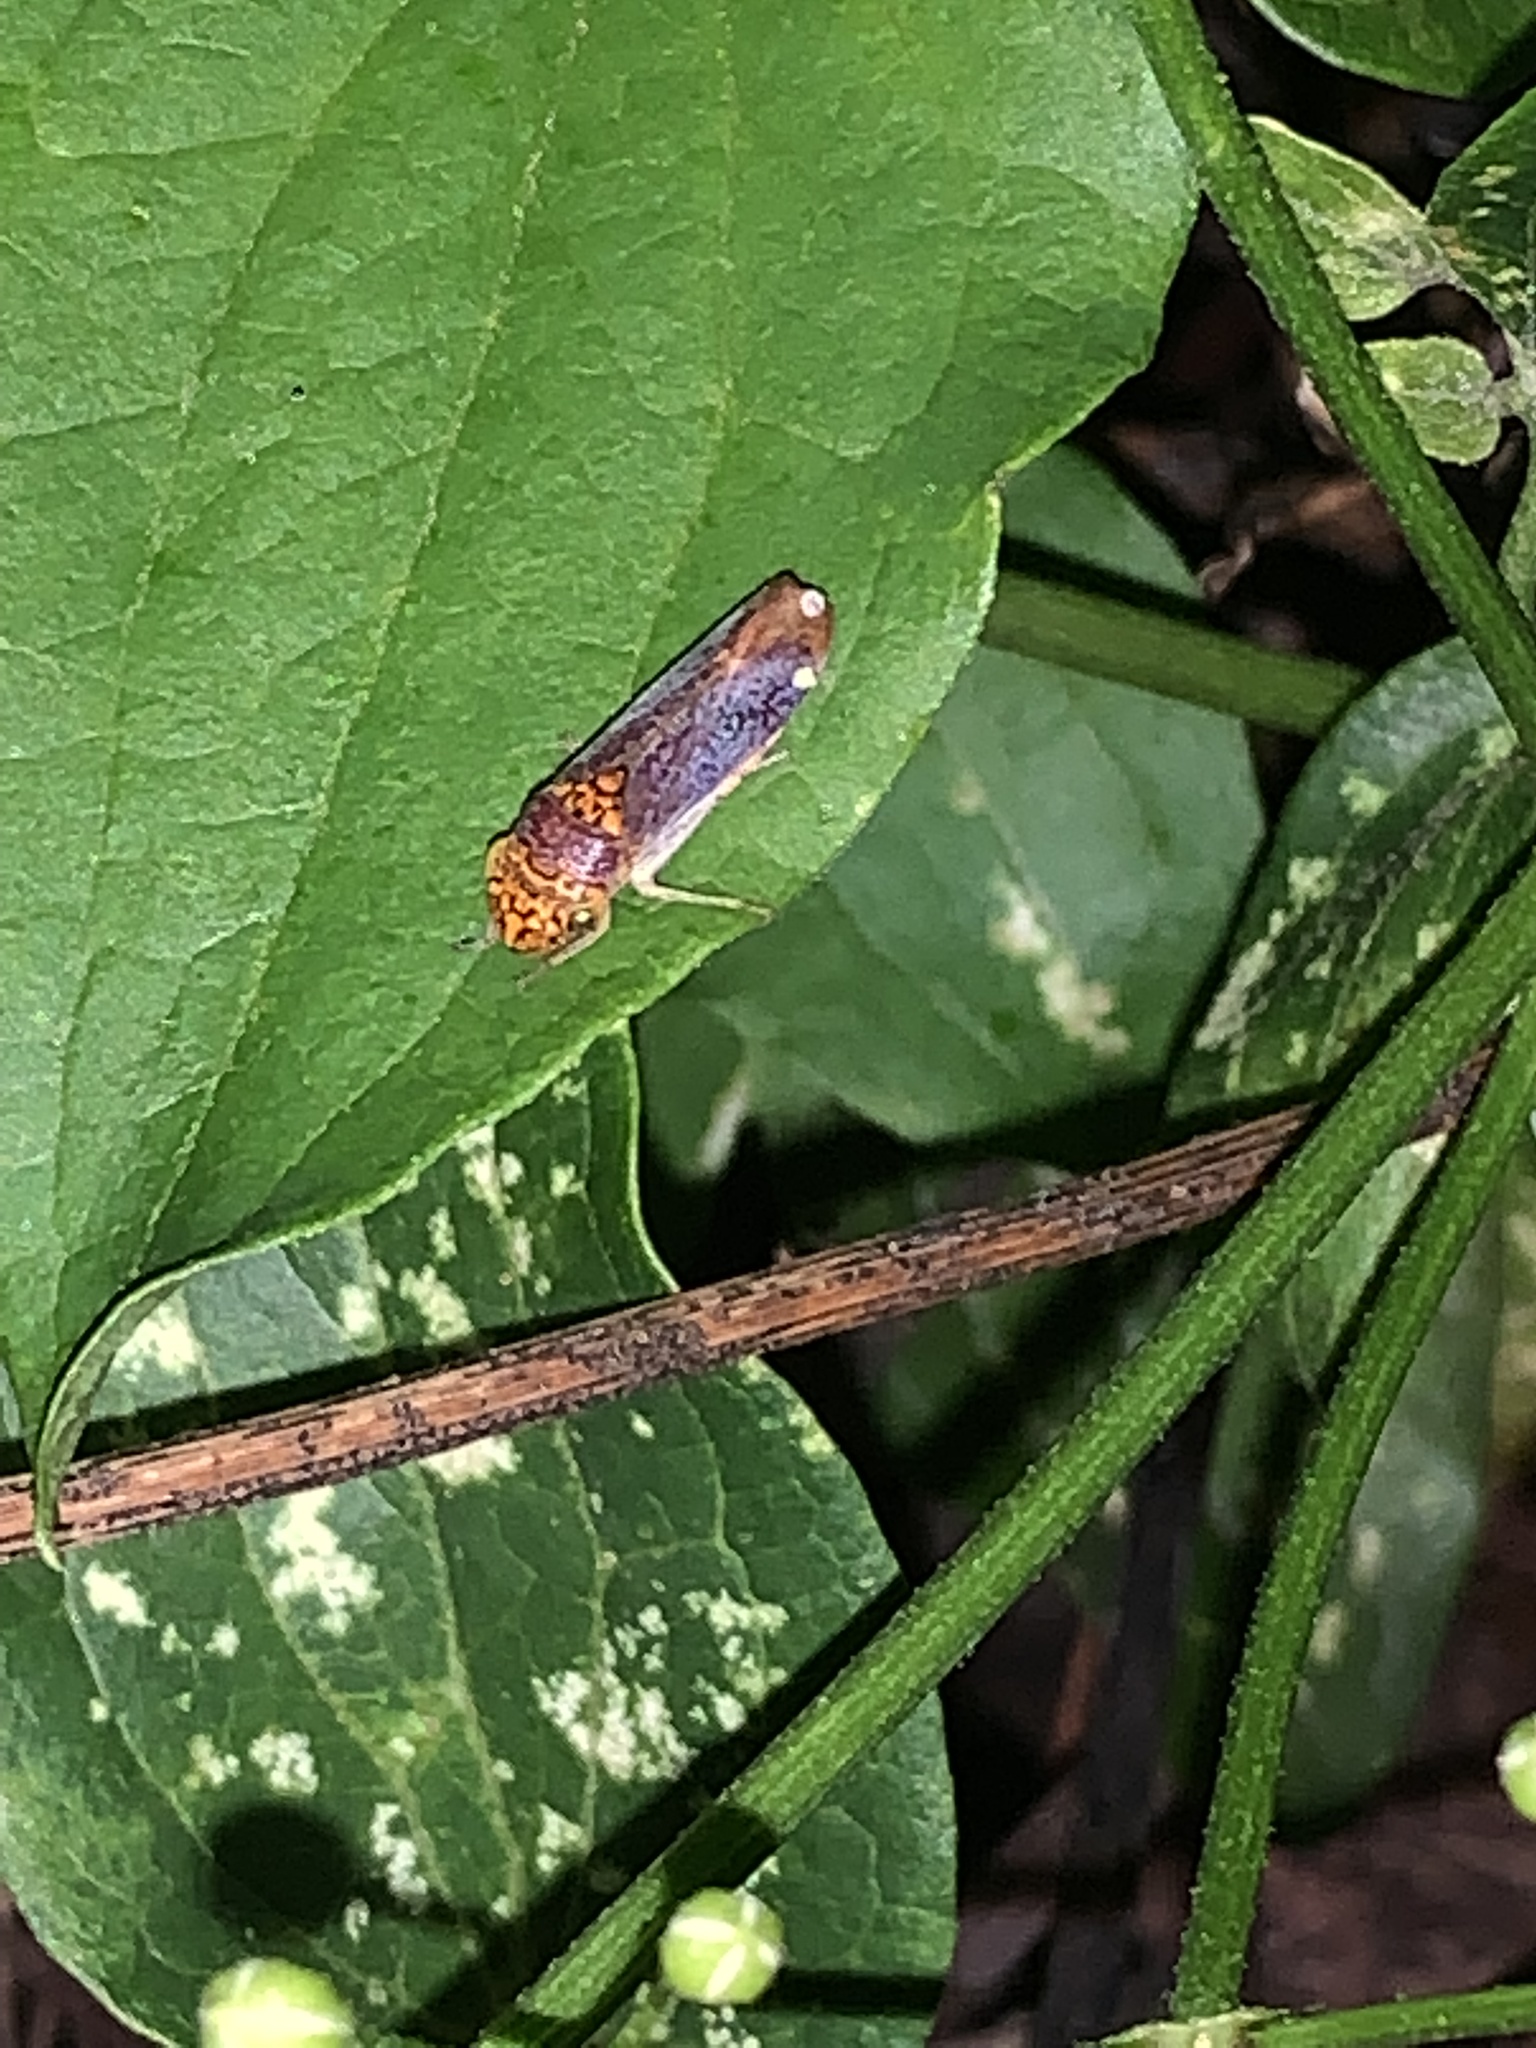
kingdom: Animalia
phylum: Arthropoda
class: Insecta
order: Hemiptera
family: Cicadellidae
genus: Oncometopia
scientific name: Oncometopia orbona
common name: Broad-headed sharpshooter
